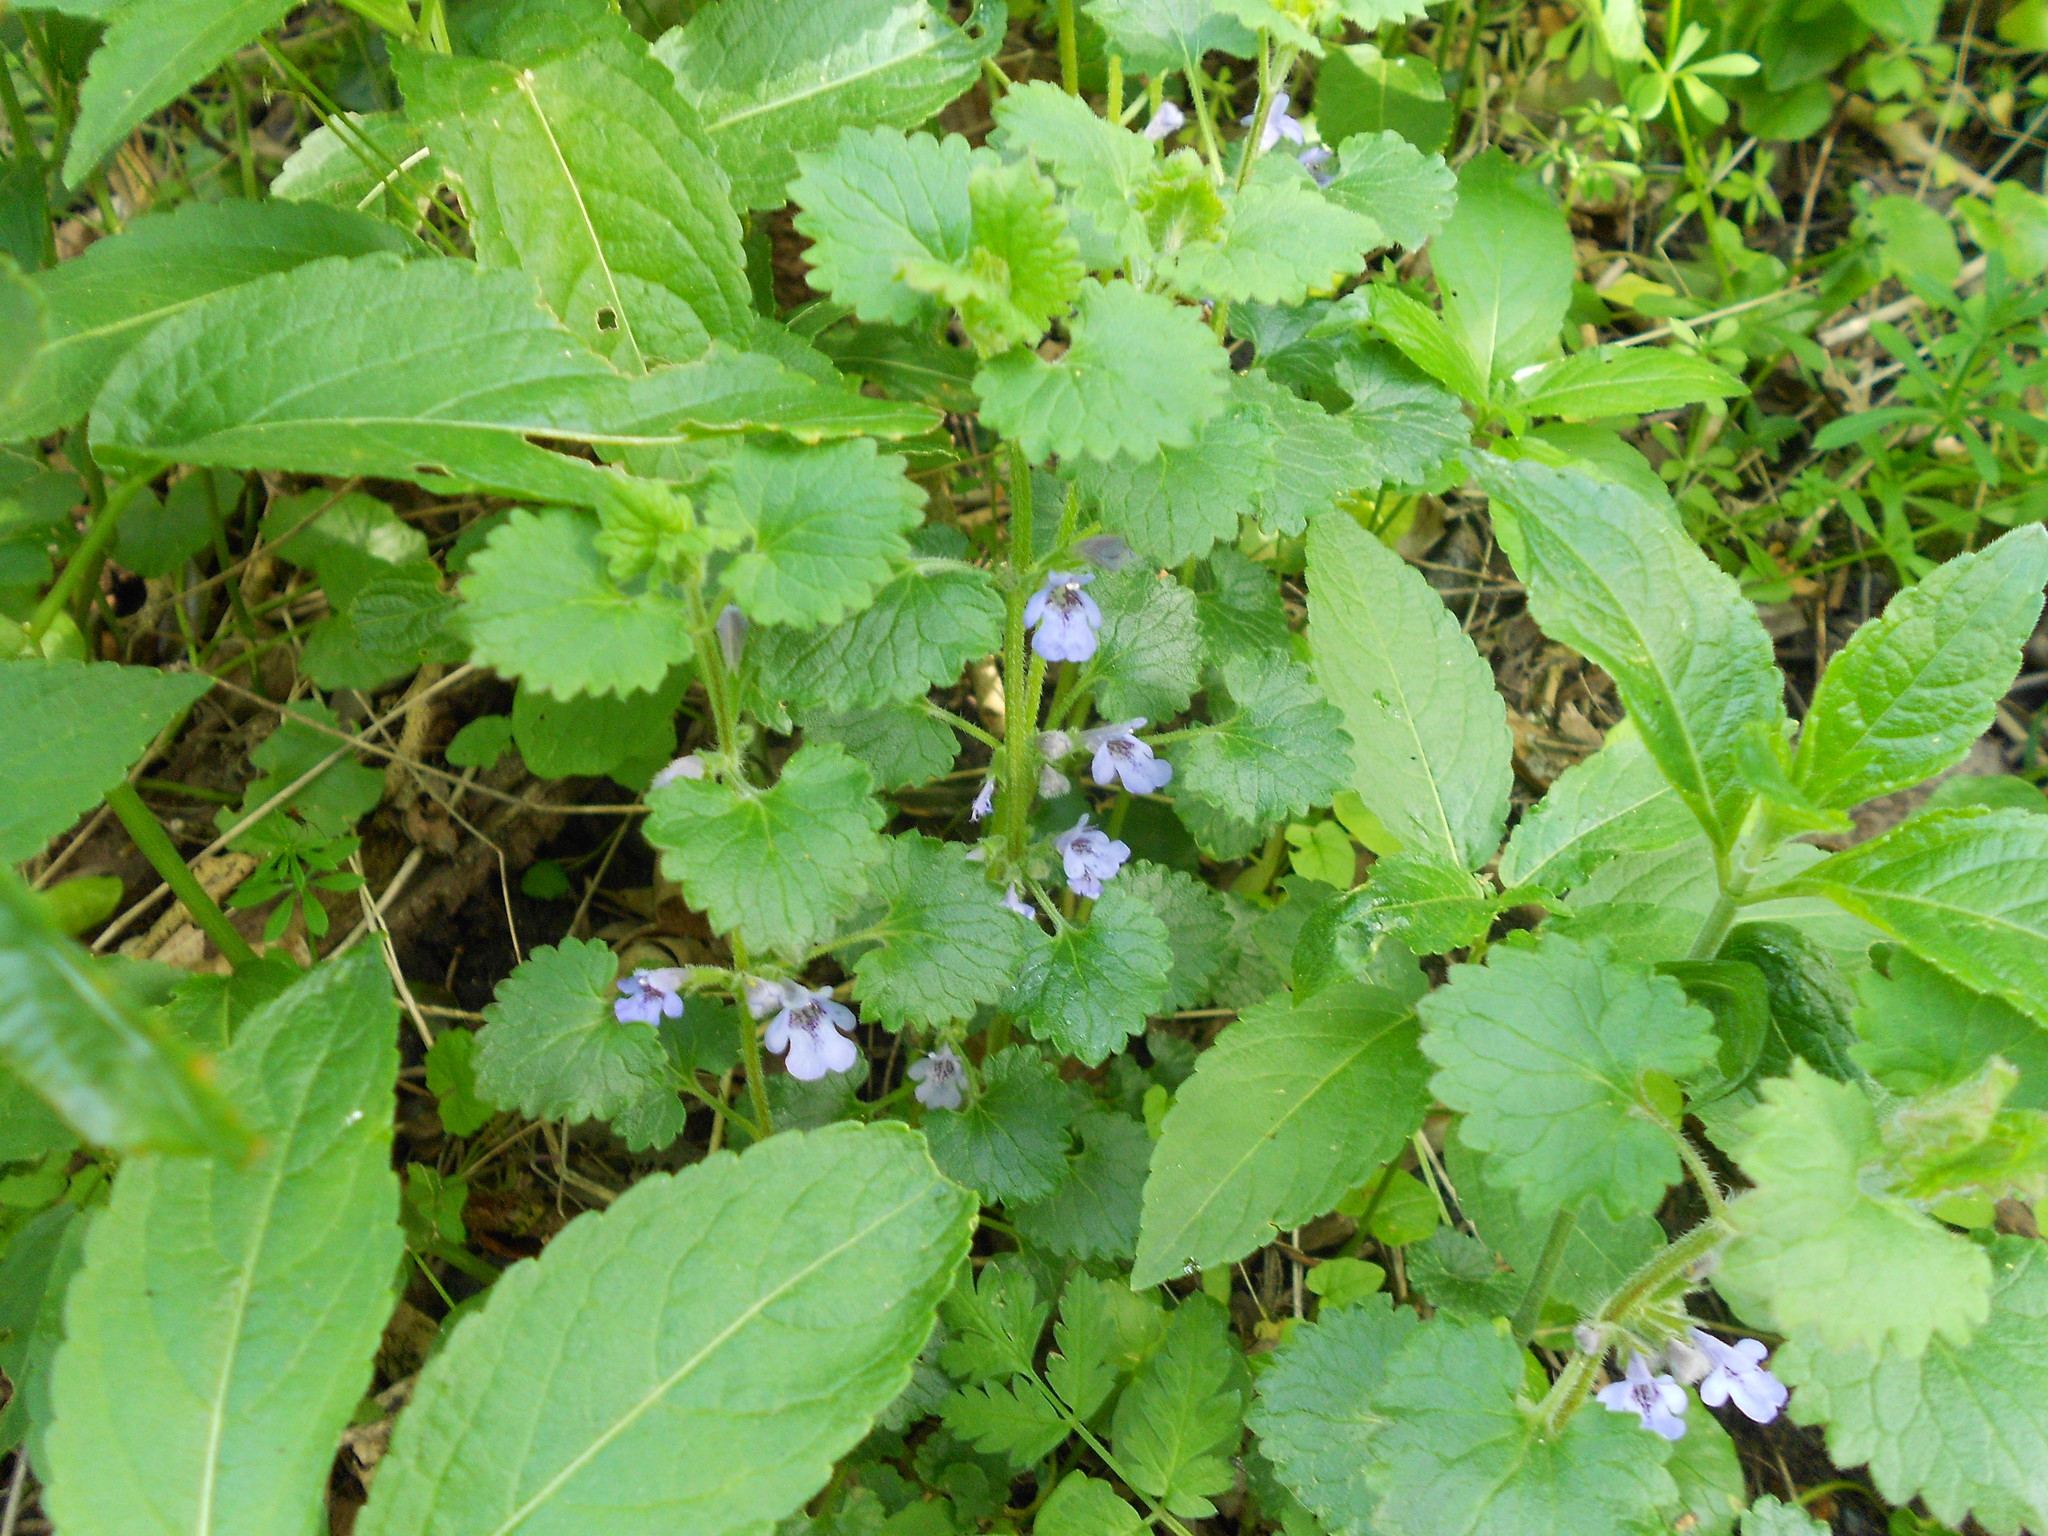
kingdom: Plantae
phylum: Tracheophyta
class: Magnoliopsida
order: Lamiales
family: Lamiaceae
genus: Glechoma
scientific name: Glechoma hederacea
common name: Ground ivy
